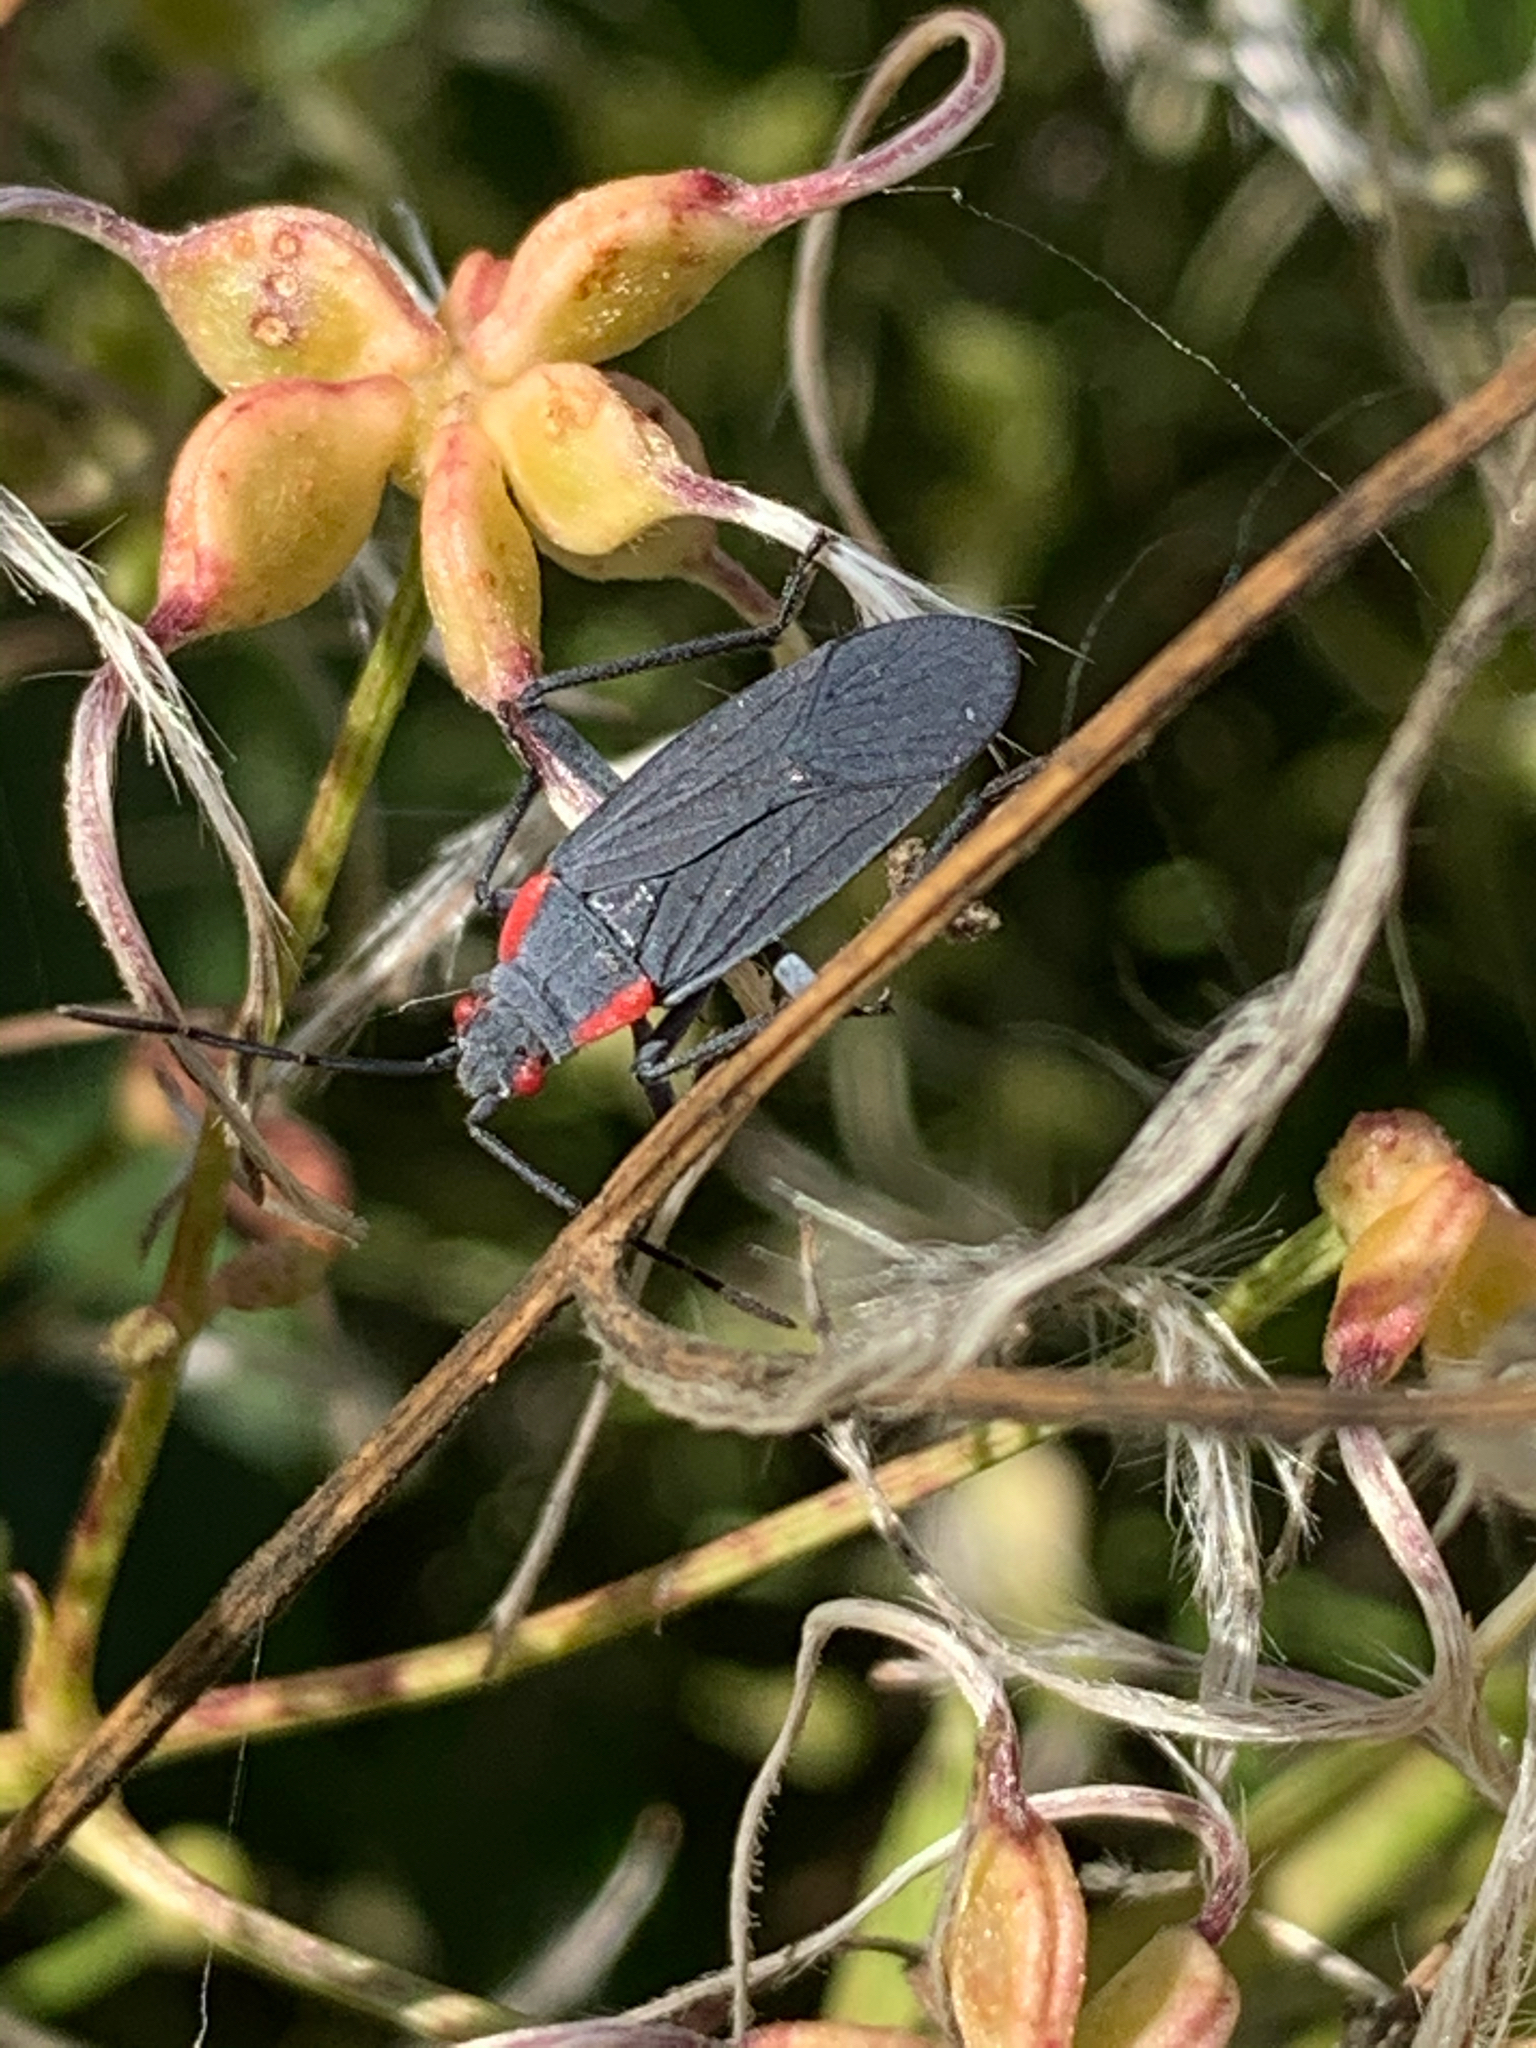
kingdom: Animalia
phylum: Arthropoda
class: Insecta
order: Hemiptera
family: Rhopalidae
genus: Jadera
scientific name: Jadera haematoloma
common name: Red-shouldered bug
